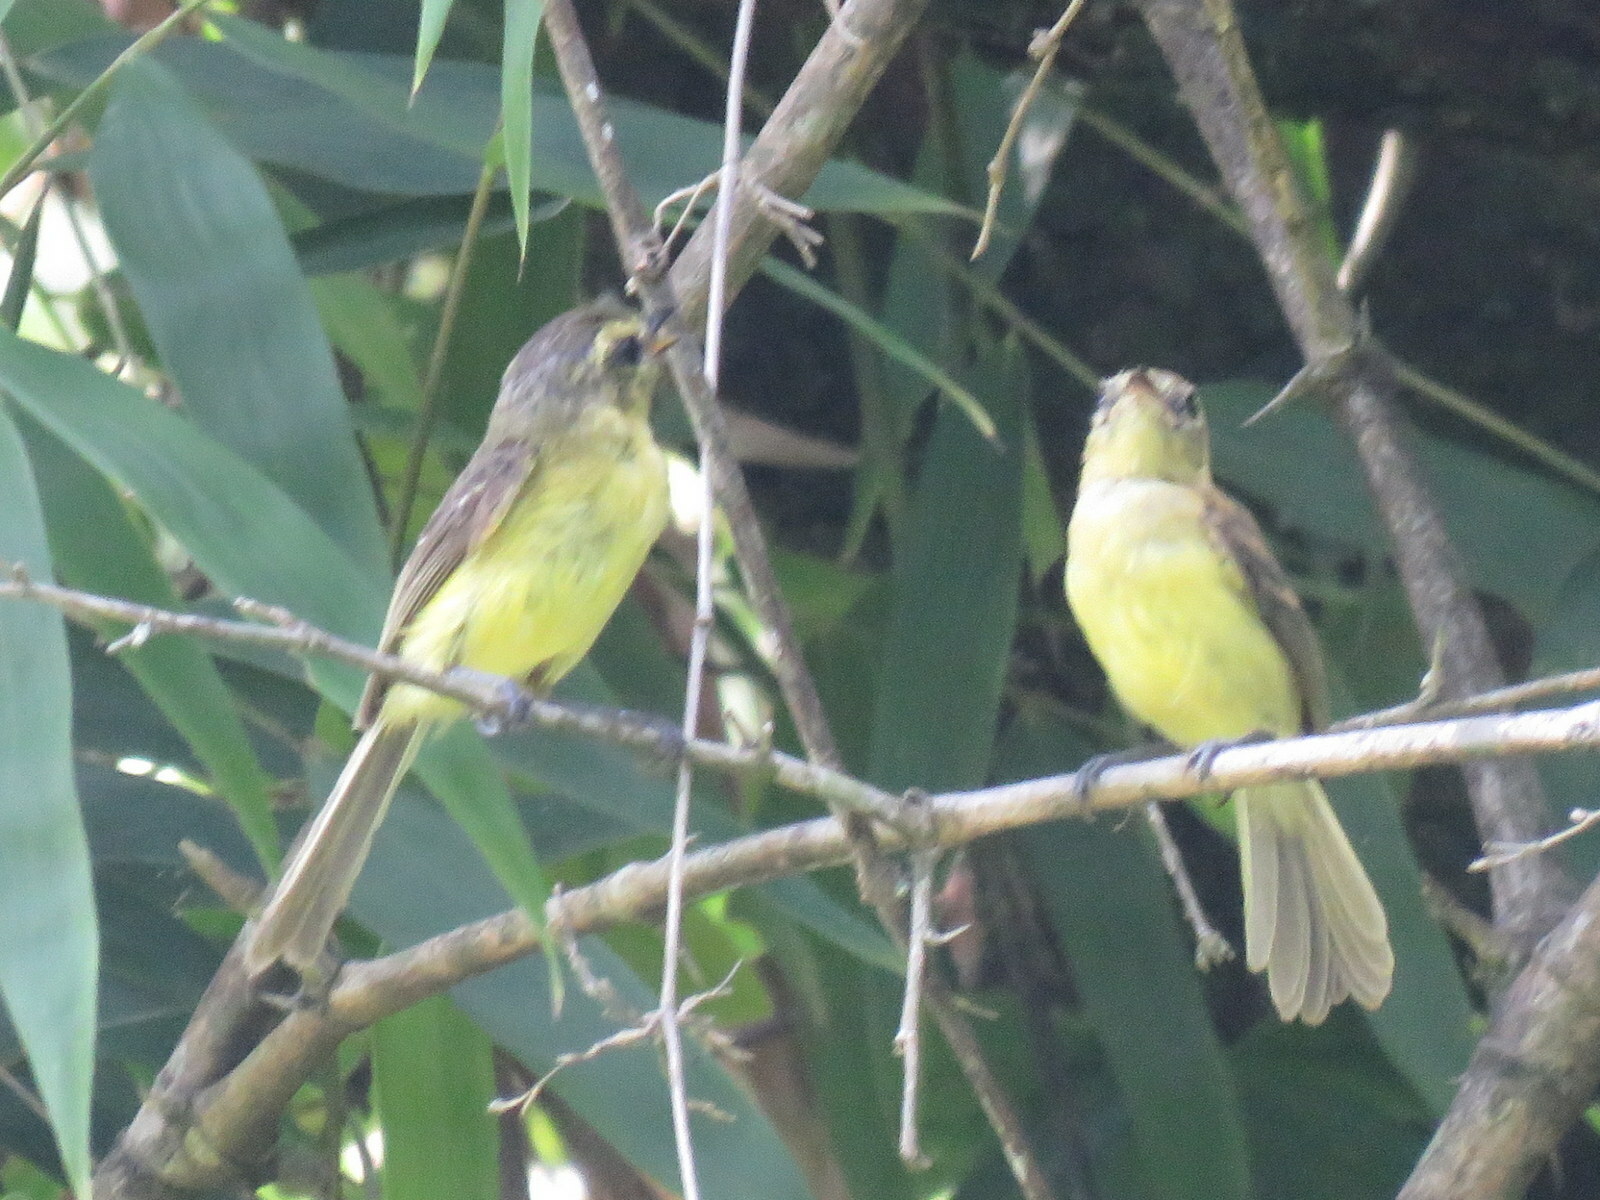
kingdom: Animalia
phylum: Chordata
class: Aves
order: Passeriformes
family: Tyrannidae
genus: Capsiempis
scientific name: Capsiempis flaveola
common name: Yellow tyrannulet
